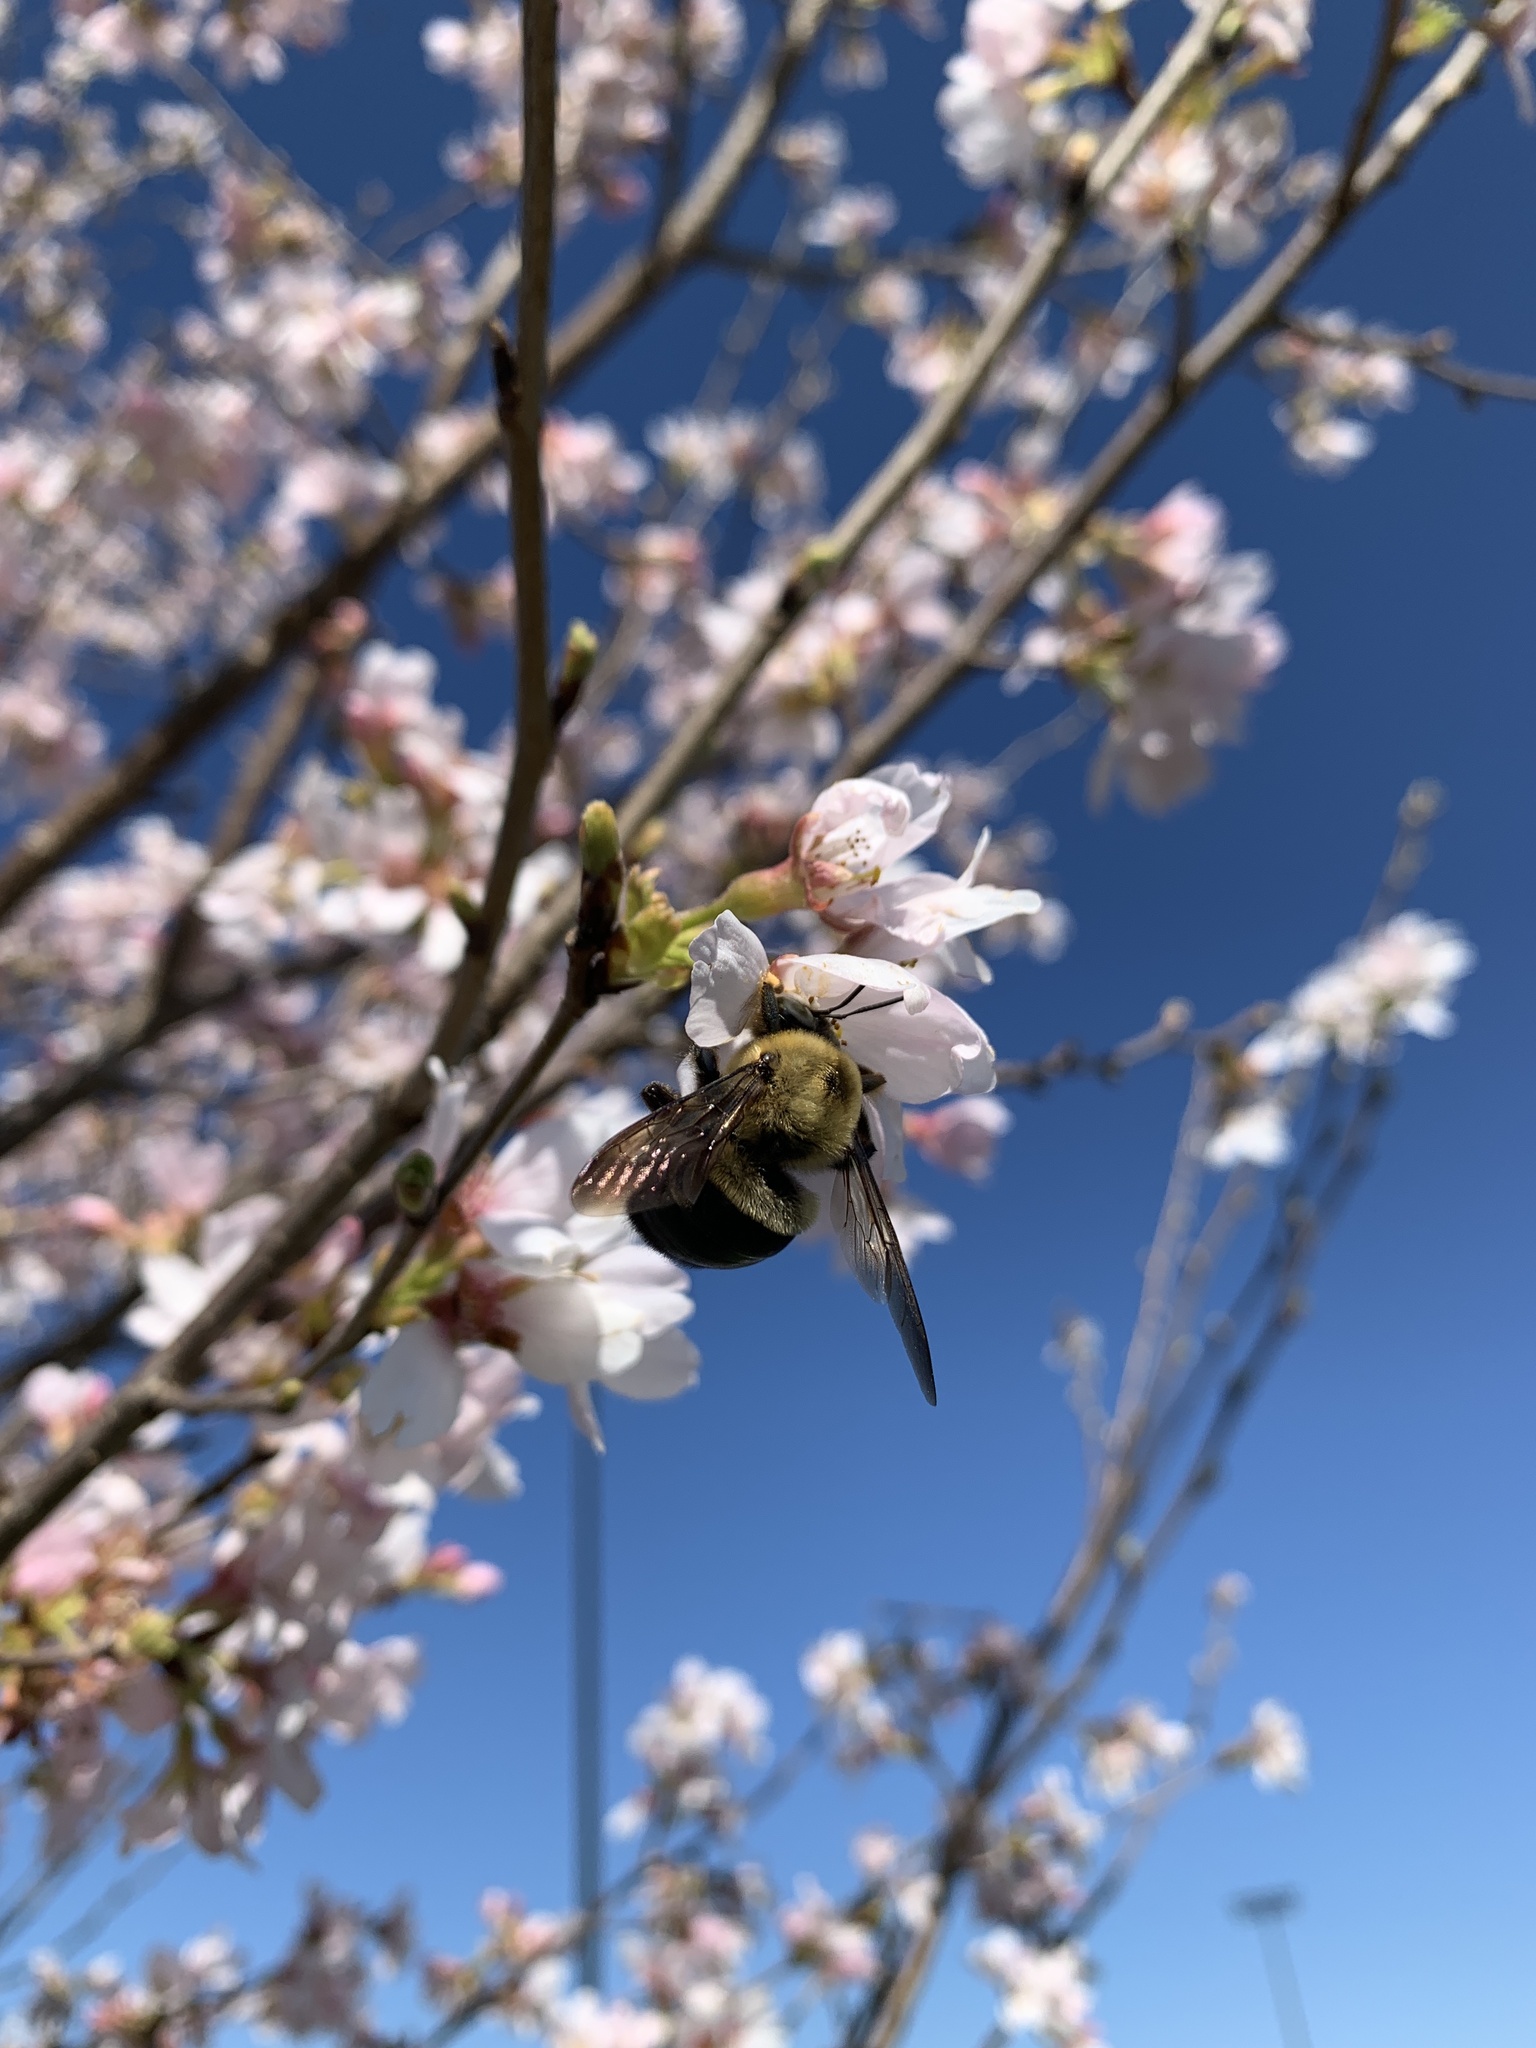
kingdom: Animalia
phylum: Arthropoda
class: Insecta
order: Hymenoptera
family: Apidae
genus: Xylocopa
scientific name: Xylocopa virginica
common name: Carpenter bee
